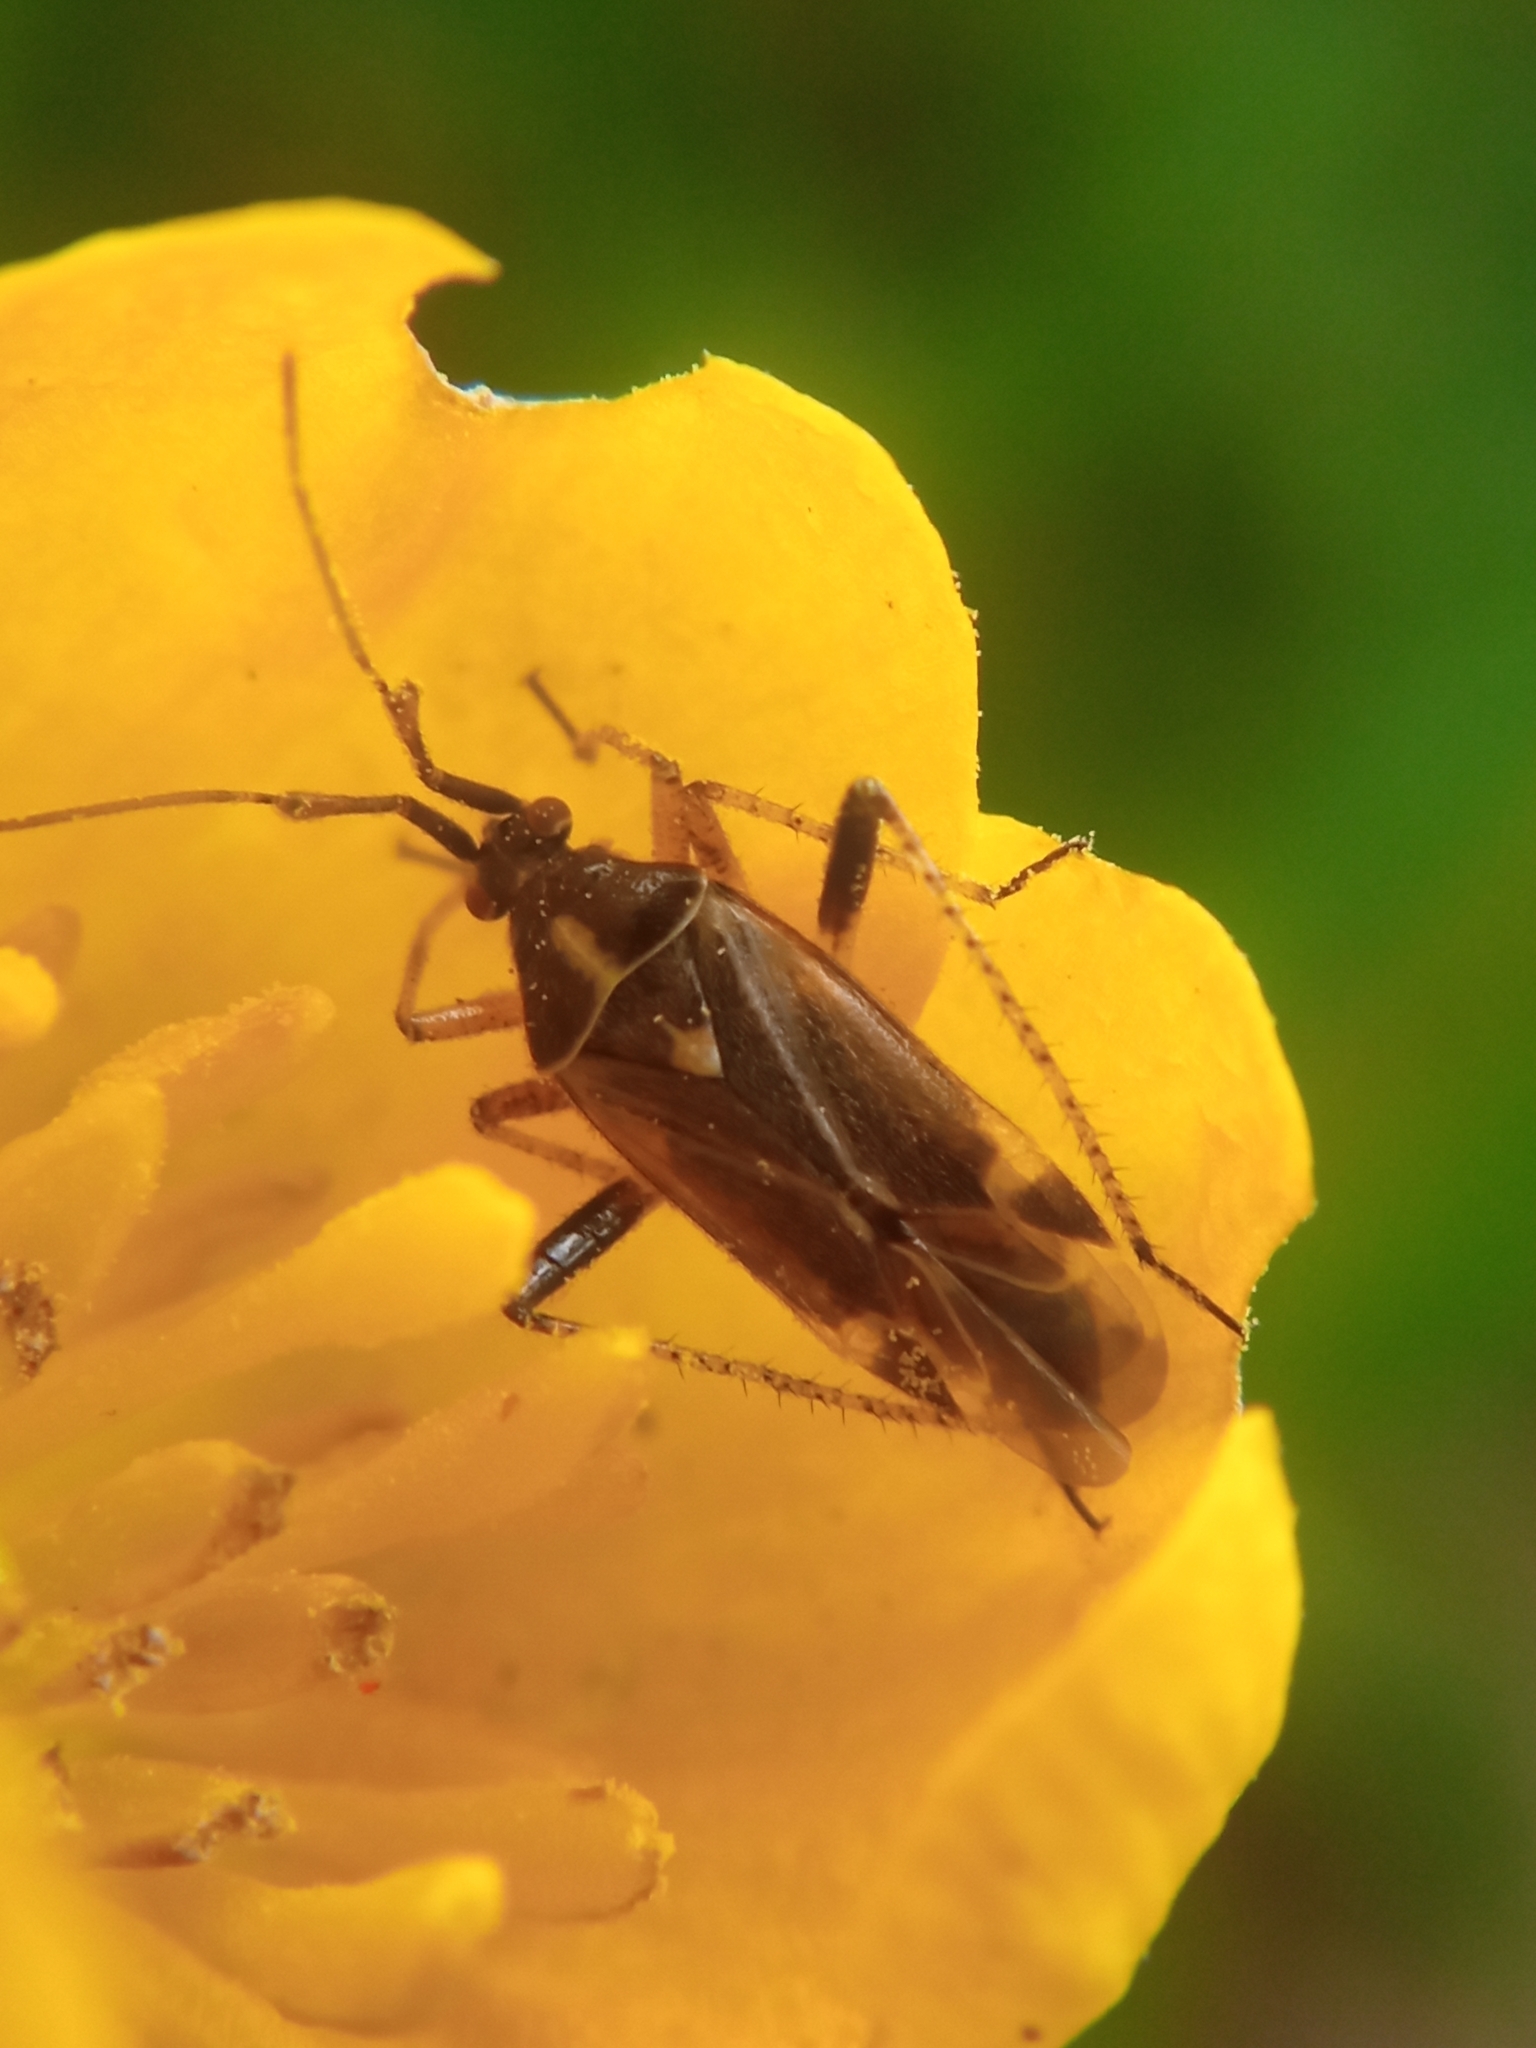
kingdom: Animalia
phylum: Arthropoda
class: Insecta
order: Hemiptera
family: Miridae
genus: Harpocera
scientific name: Harpocera thoracica
